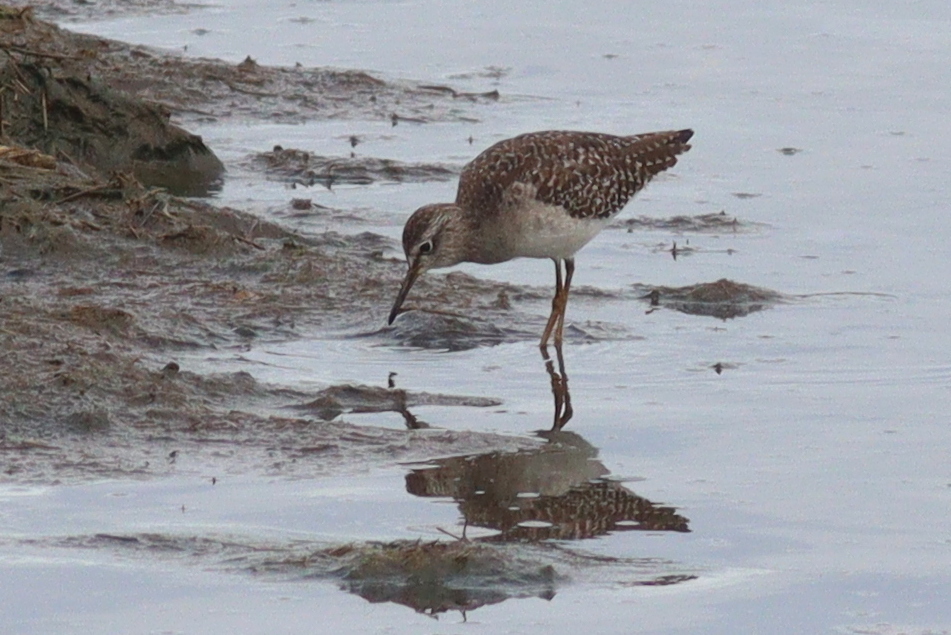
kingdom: Animalia
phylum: Chordata
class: Aves
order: Charadriiformes
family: Scolopacidae
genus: Tringa
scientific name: Tringa glareola
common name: Wood sandpiper
